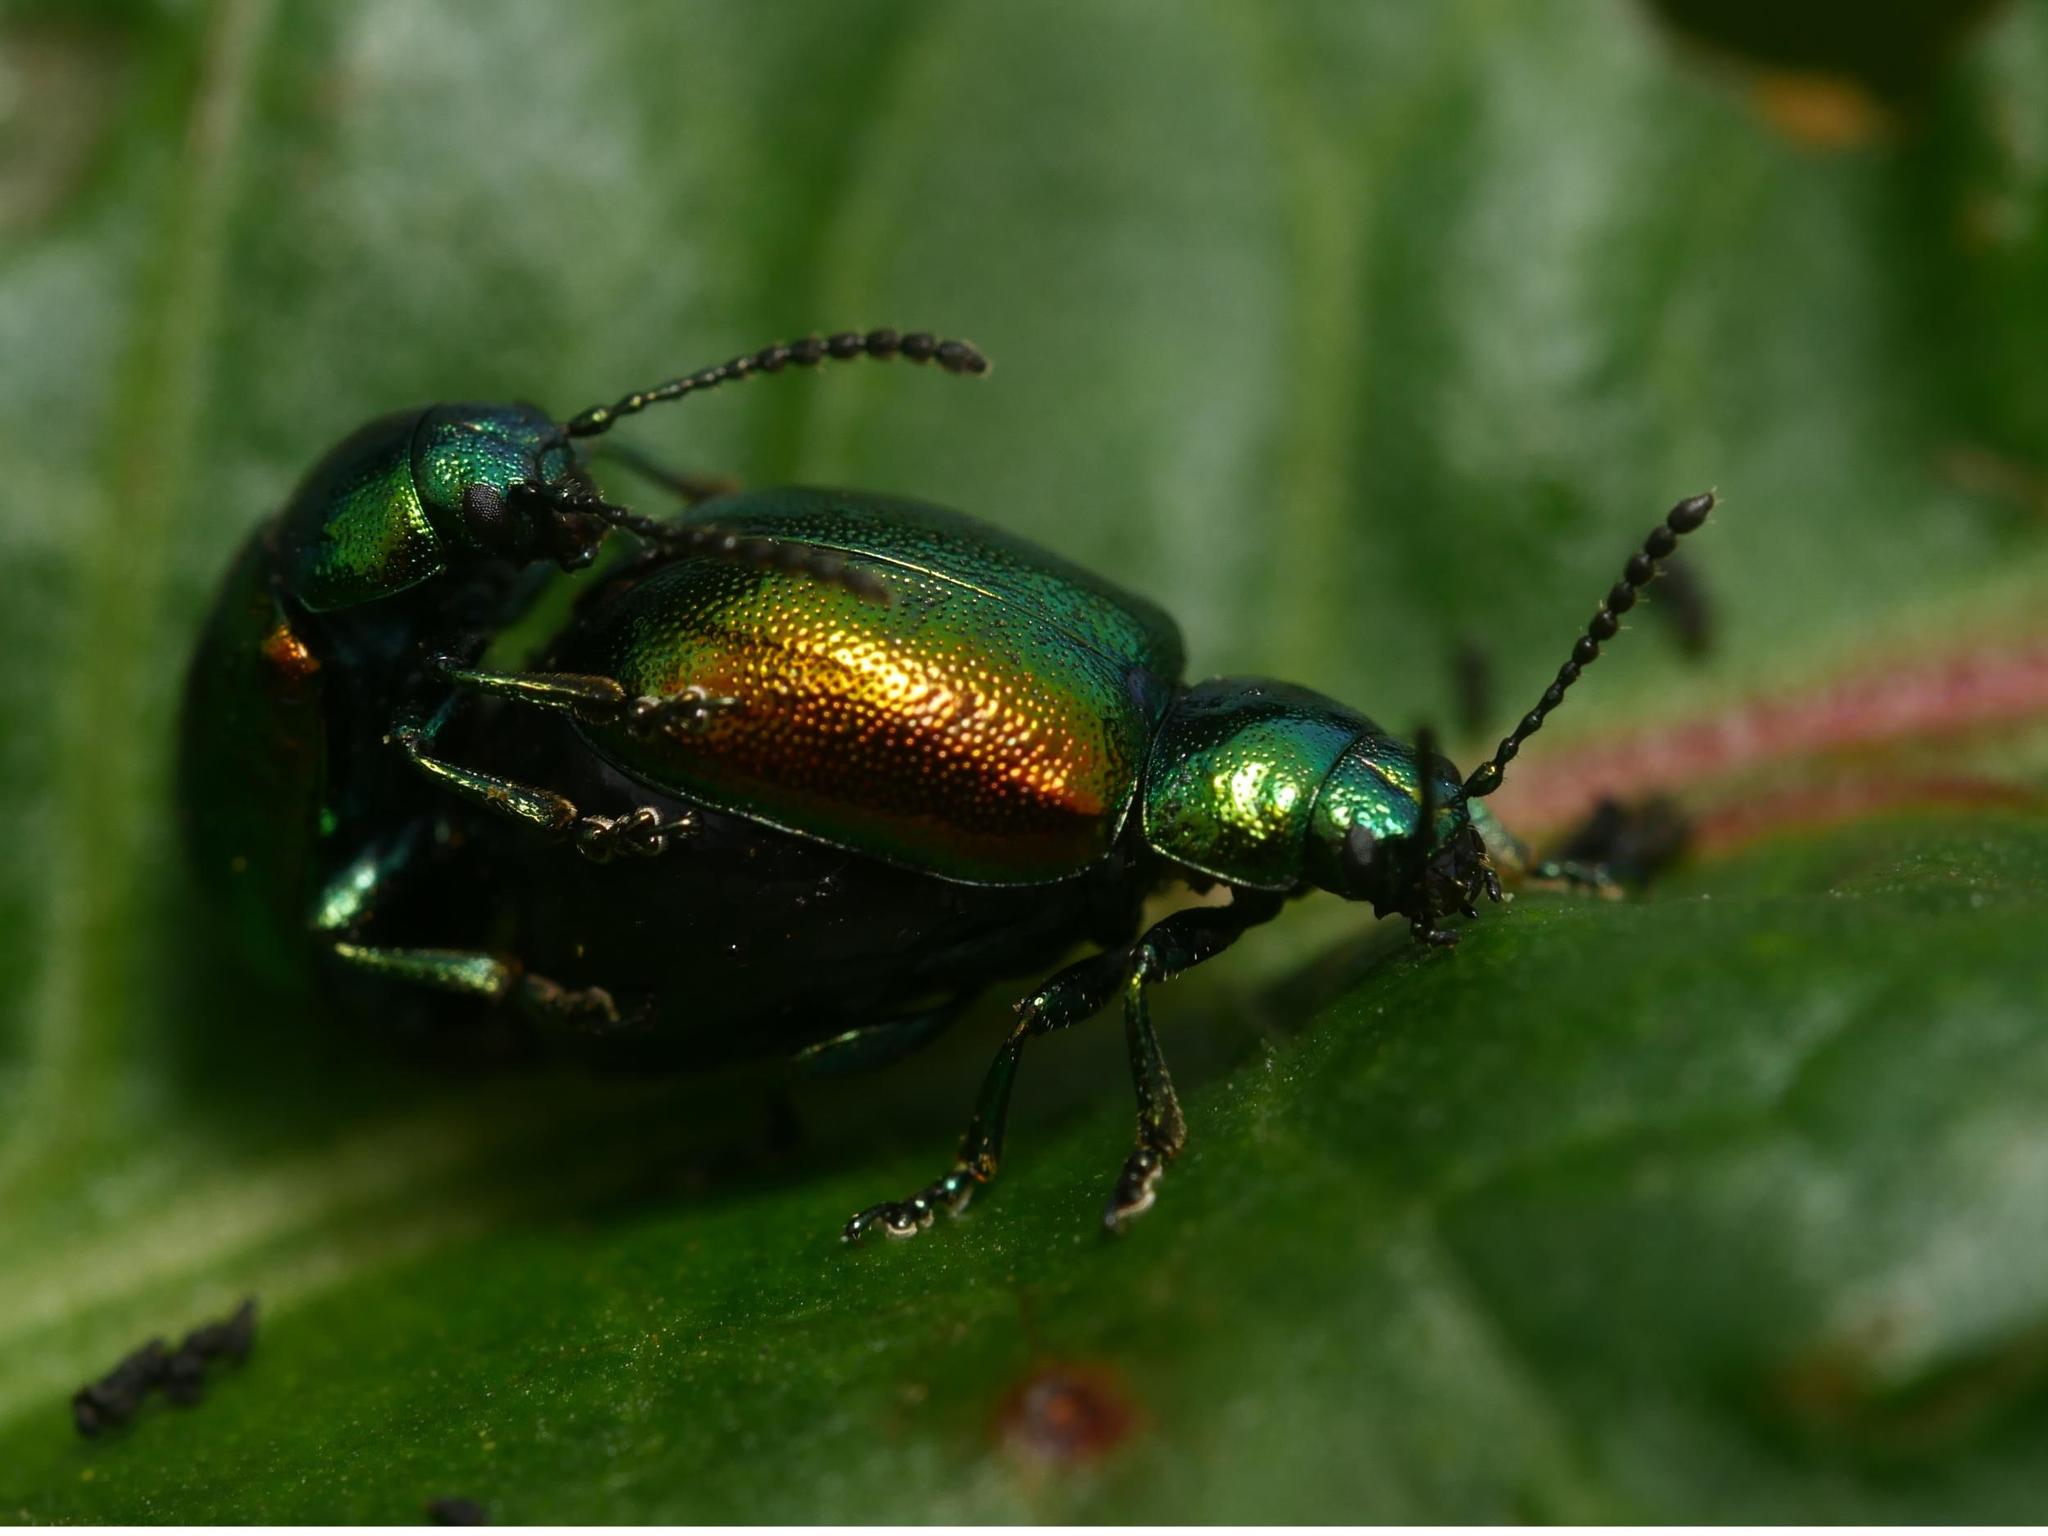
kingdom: Animalia
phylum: Arthropoda
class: Insecta
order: Coleoptera
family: Chrysomelidae
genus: Gastrophysa
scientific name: Gastrophysa viridula
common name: Green dock beetle
